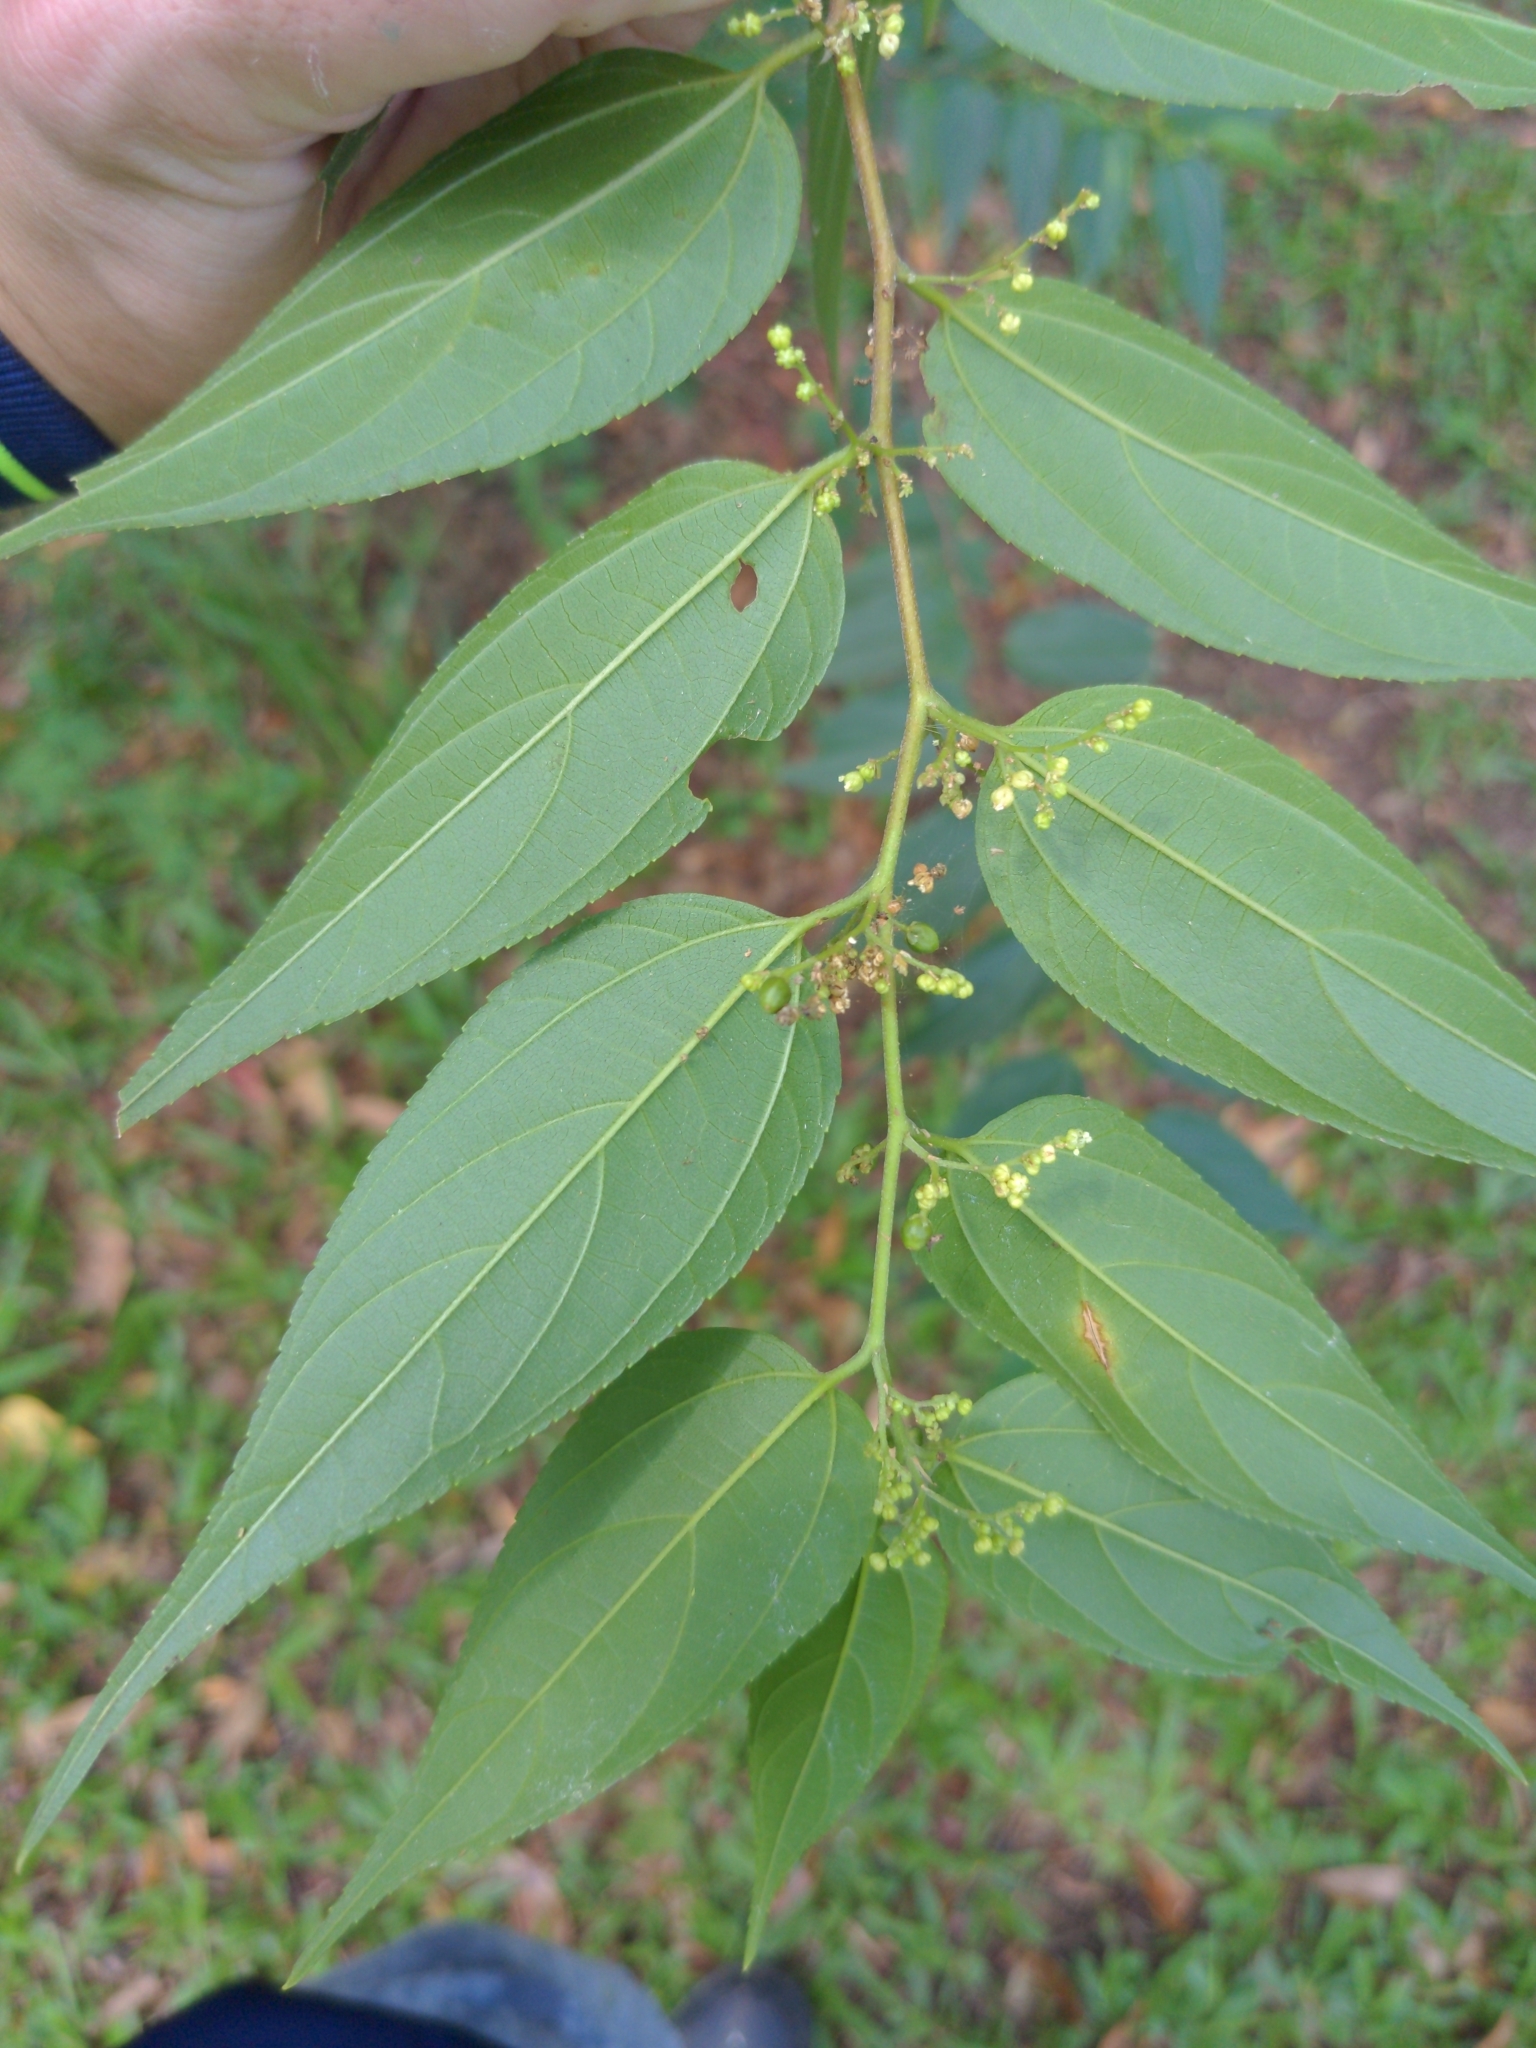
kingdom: Plantae
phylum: Tracheophyta
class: Magnoliopsida
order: Rosales
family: Cannabaceae
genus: Trema
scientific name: Trema tomentosum
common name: Peach-leaf-poisonbush
